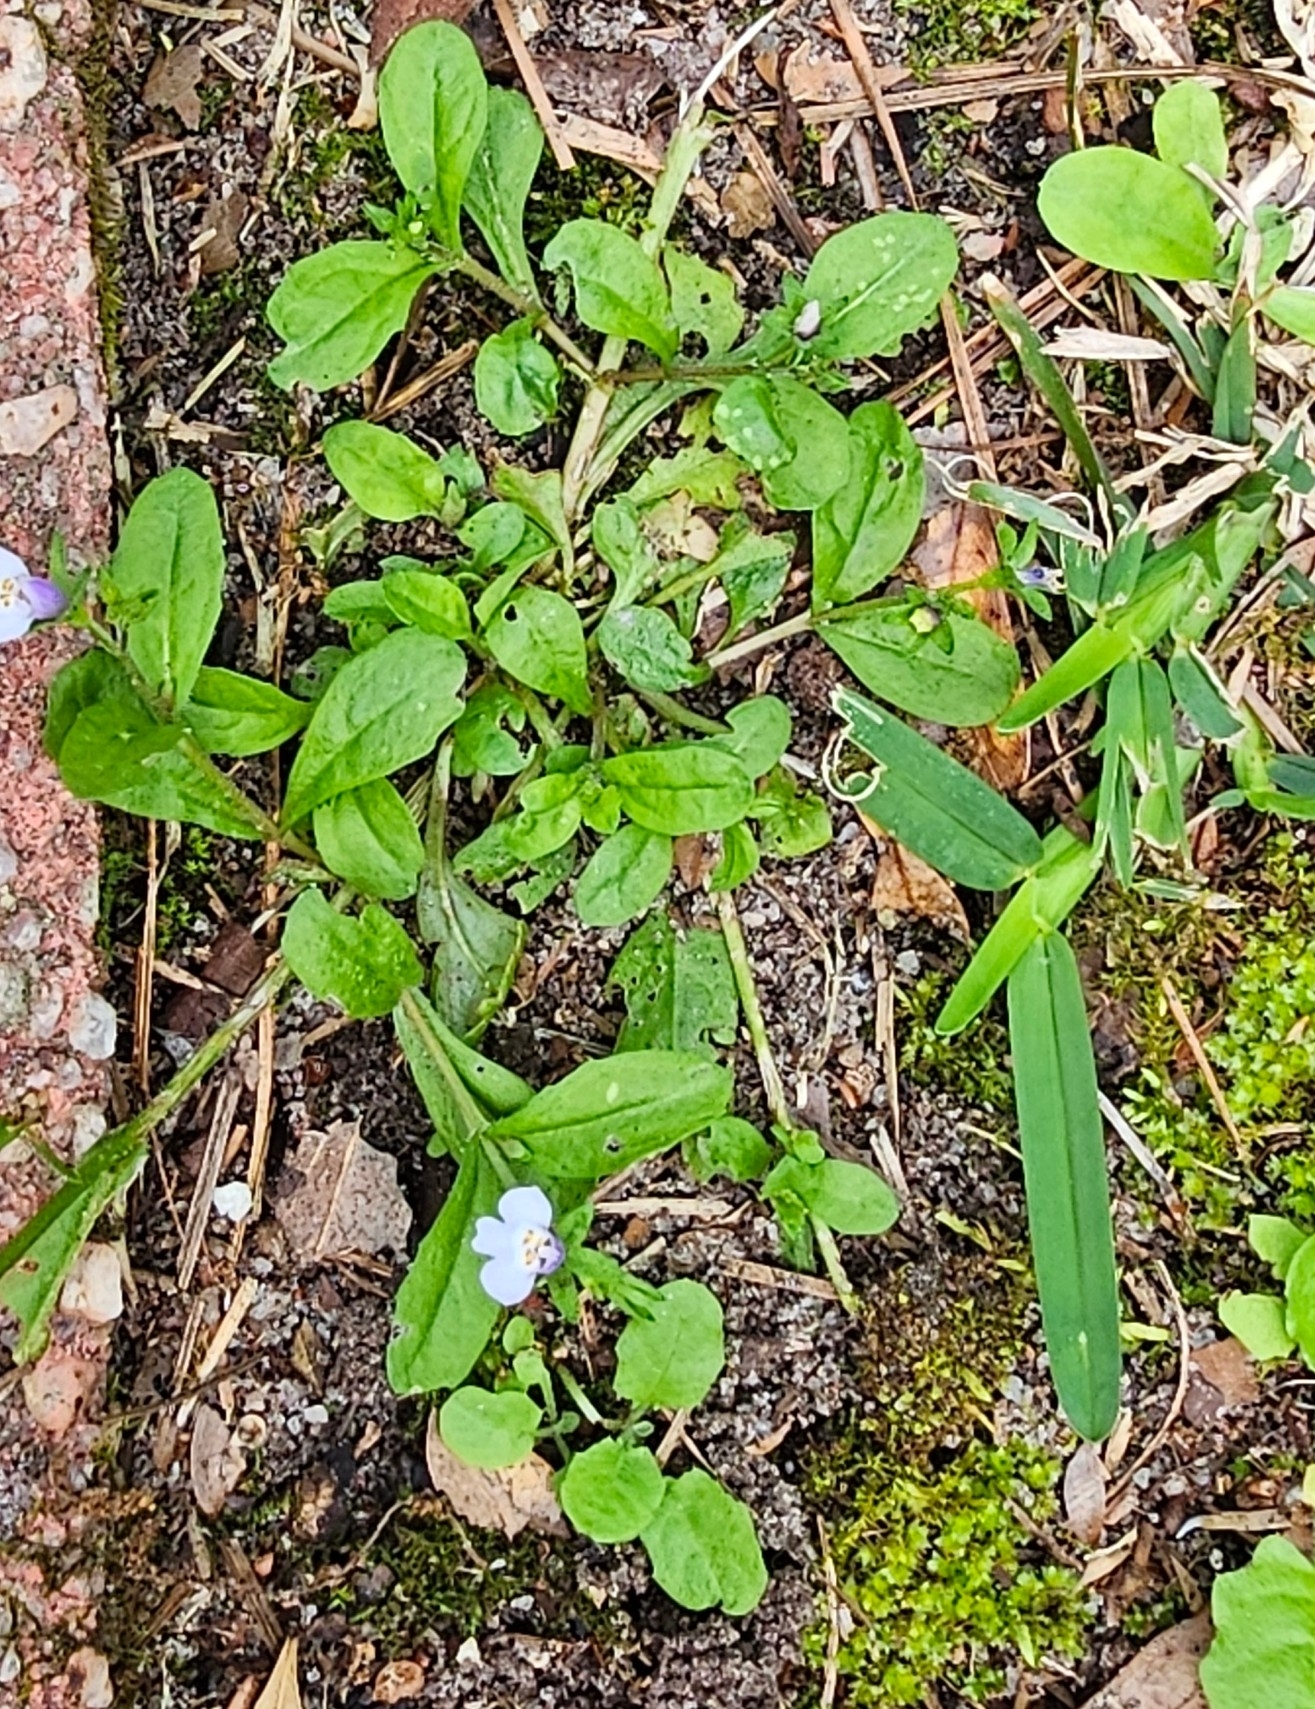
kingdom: Plantae
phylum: Tracheophyta
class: Magnoliopsida
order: Lamiales
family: Mazaceae
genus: Mazus
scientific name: Mazus pumilus
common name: Japanese mazus
